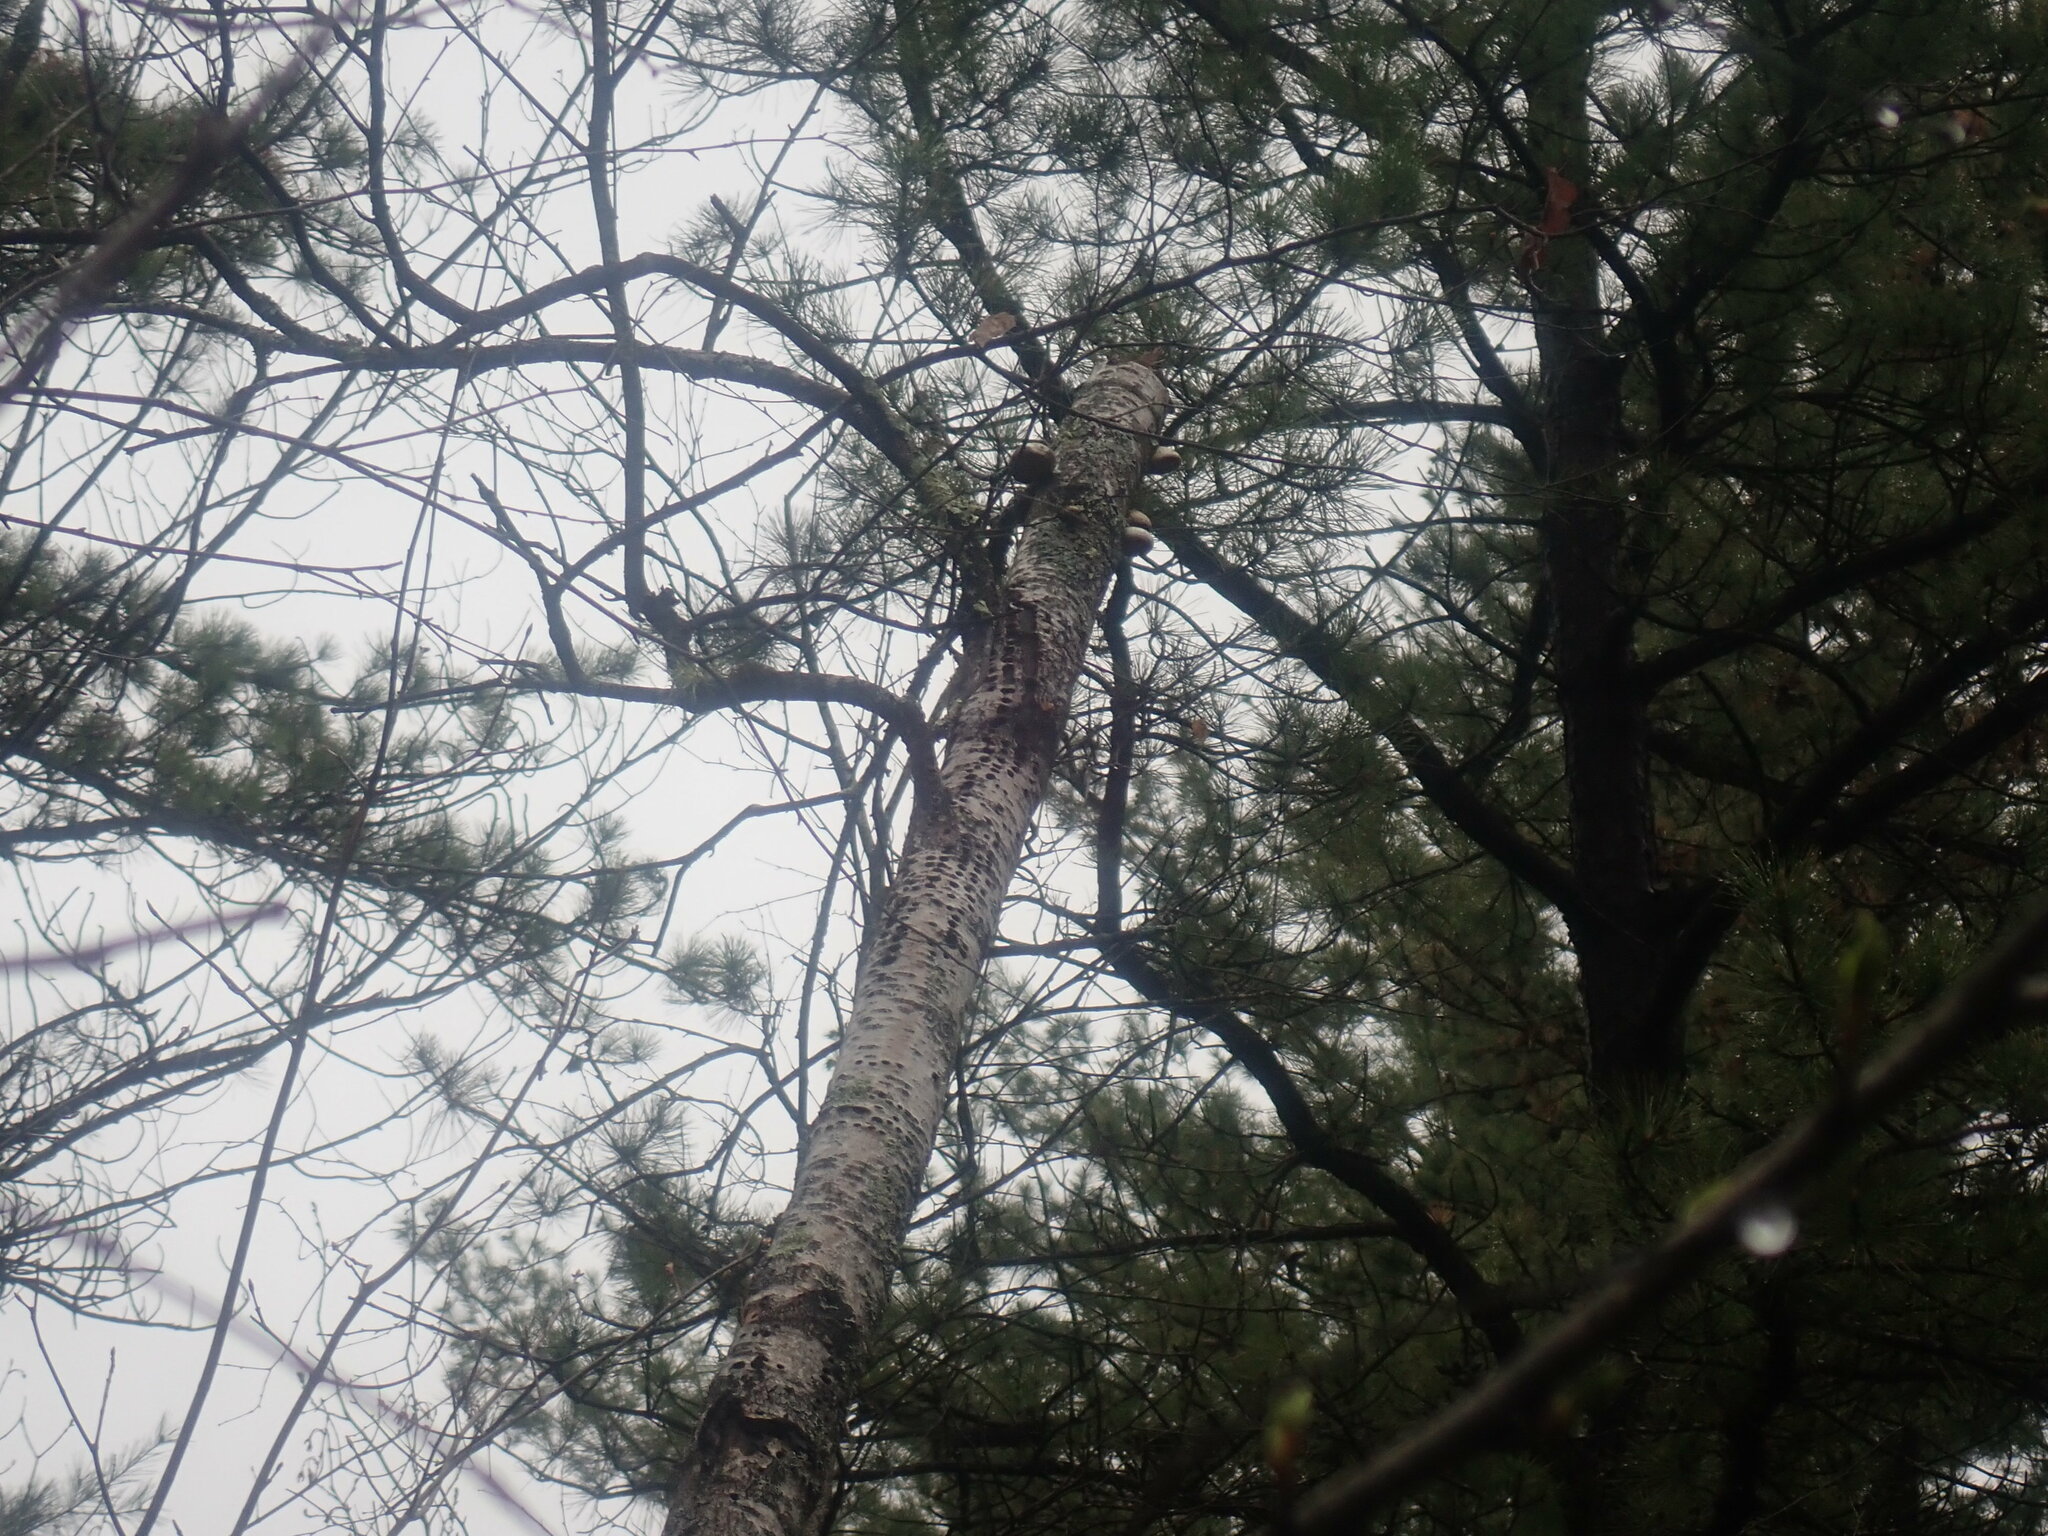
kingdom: Animalia
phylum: Chordata
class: Aves
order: Piciformes
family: Picidae
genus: Sphyrapicus
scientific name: Sphyrapicus varius
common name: Yellow-bellied sapsucker
